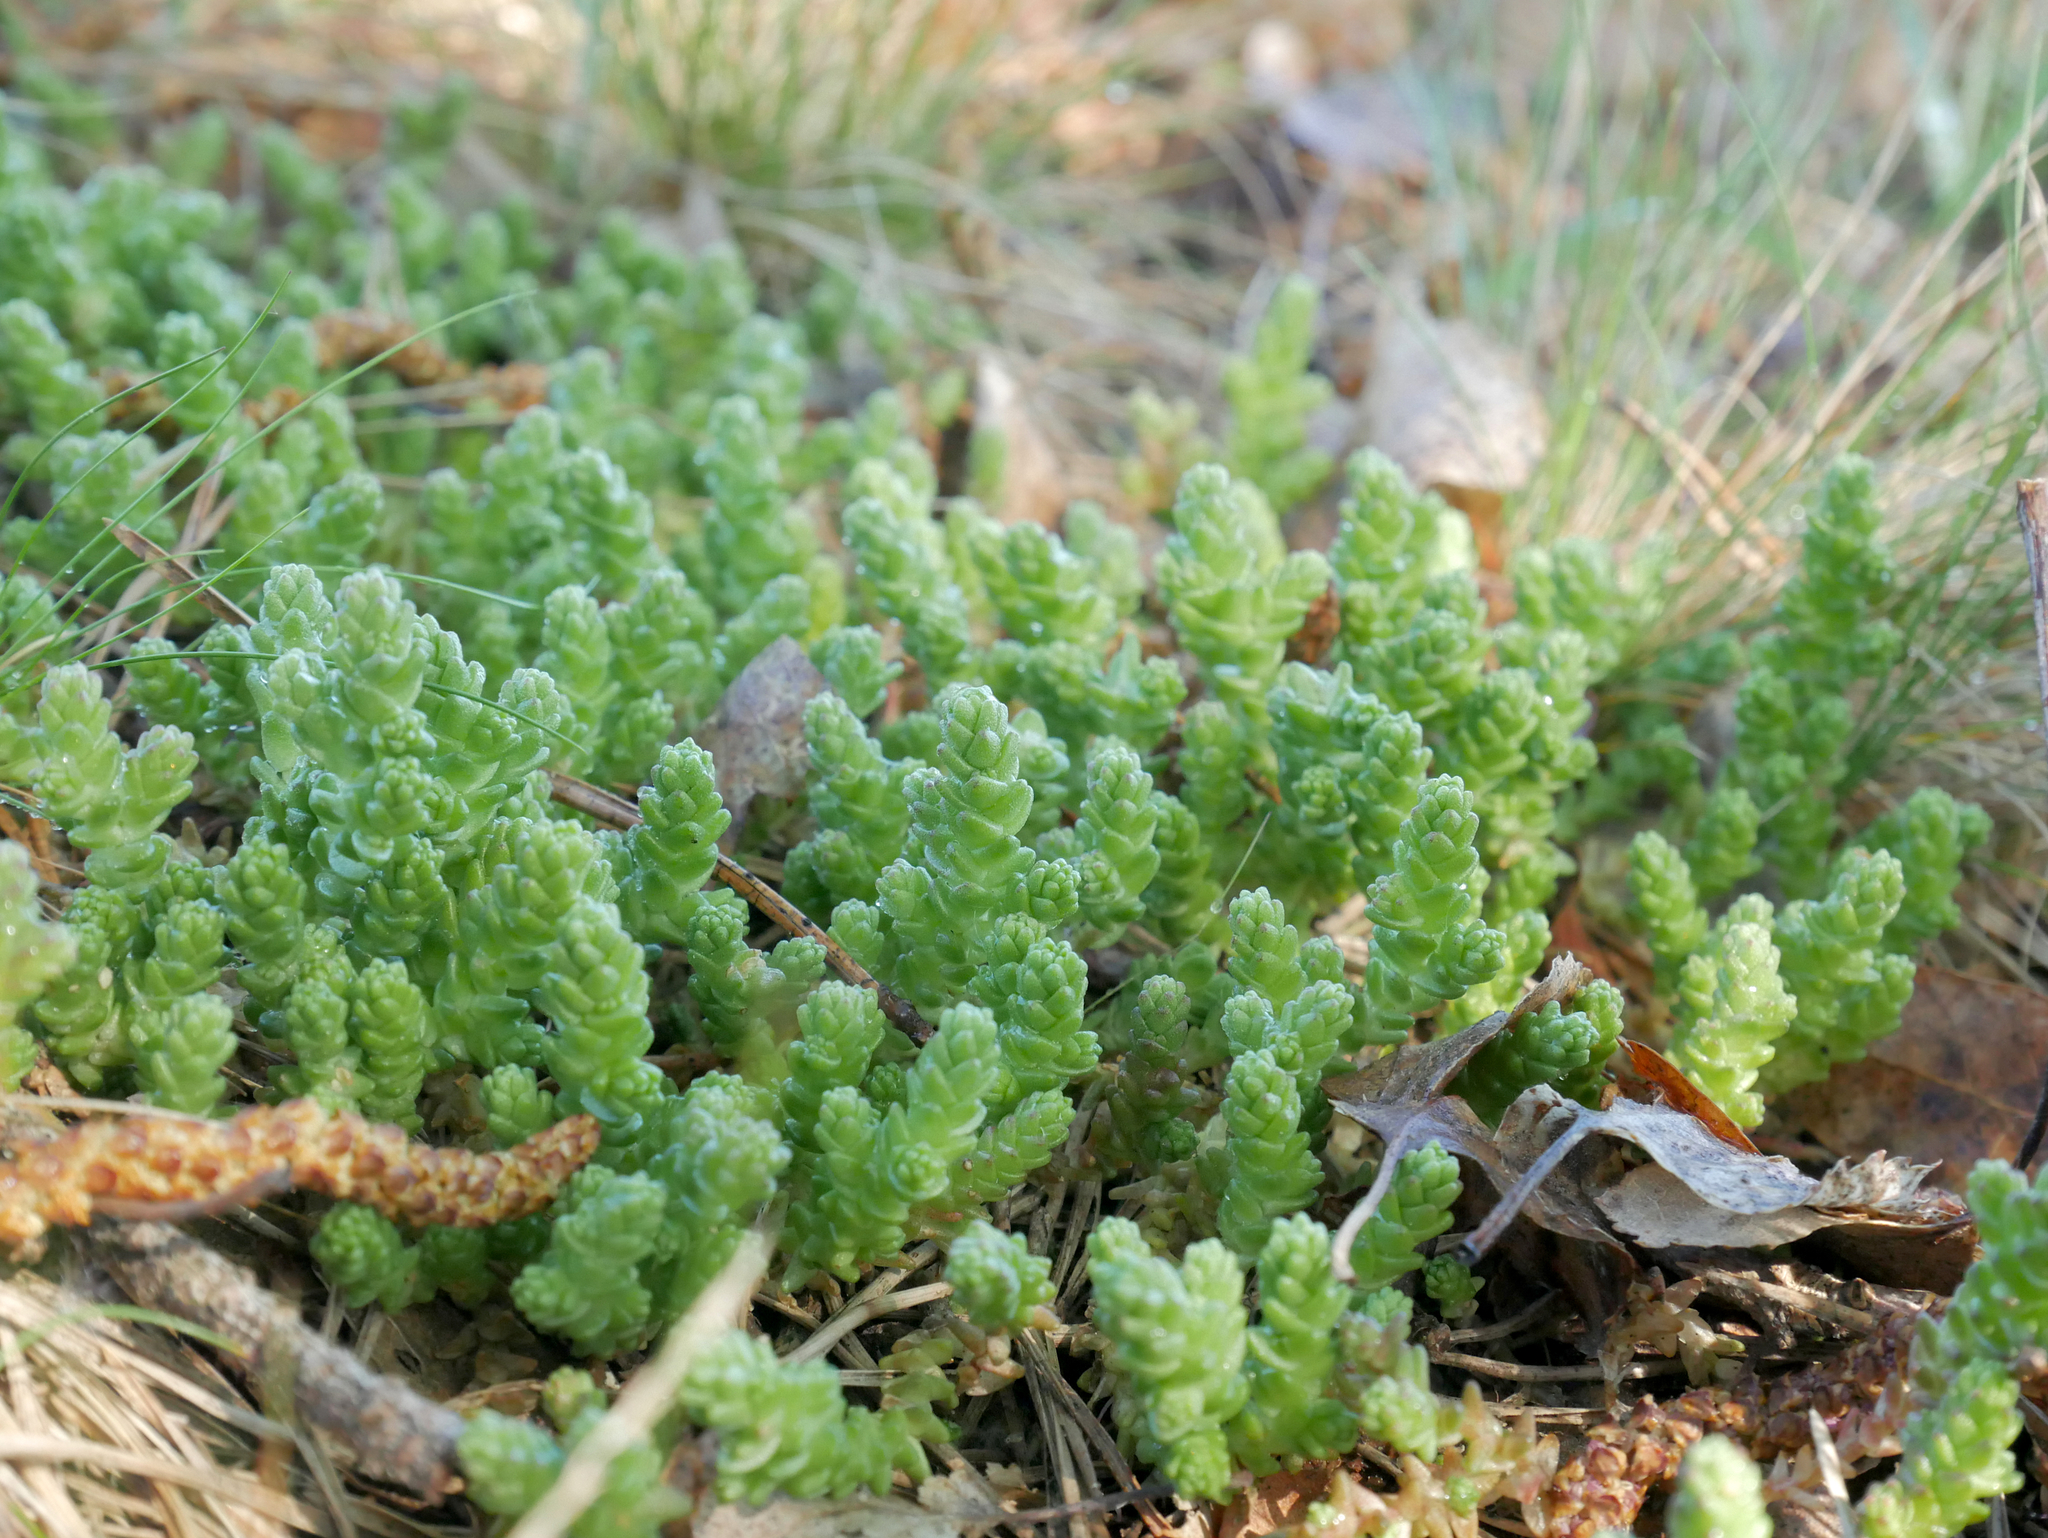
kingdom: Plantae
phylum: Tracheophyta
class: Magnoliopsida
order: Saxifragales
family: Crassulaceae
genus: Sedum
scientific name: Sedum acre
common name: Biting stonecrop
